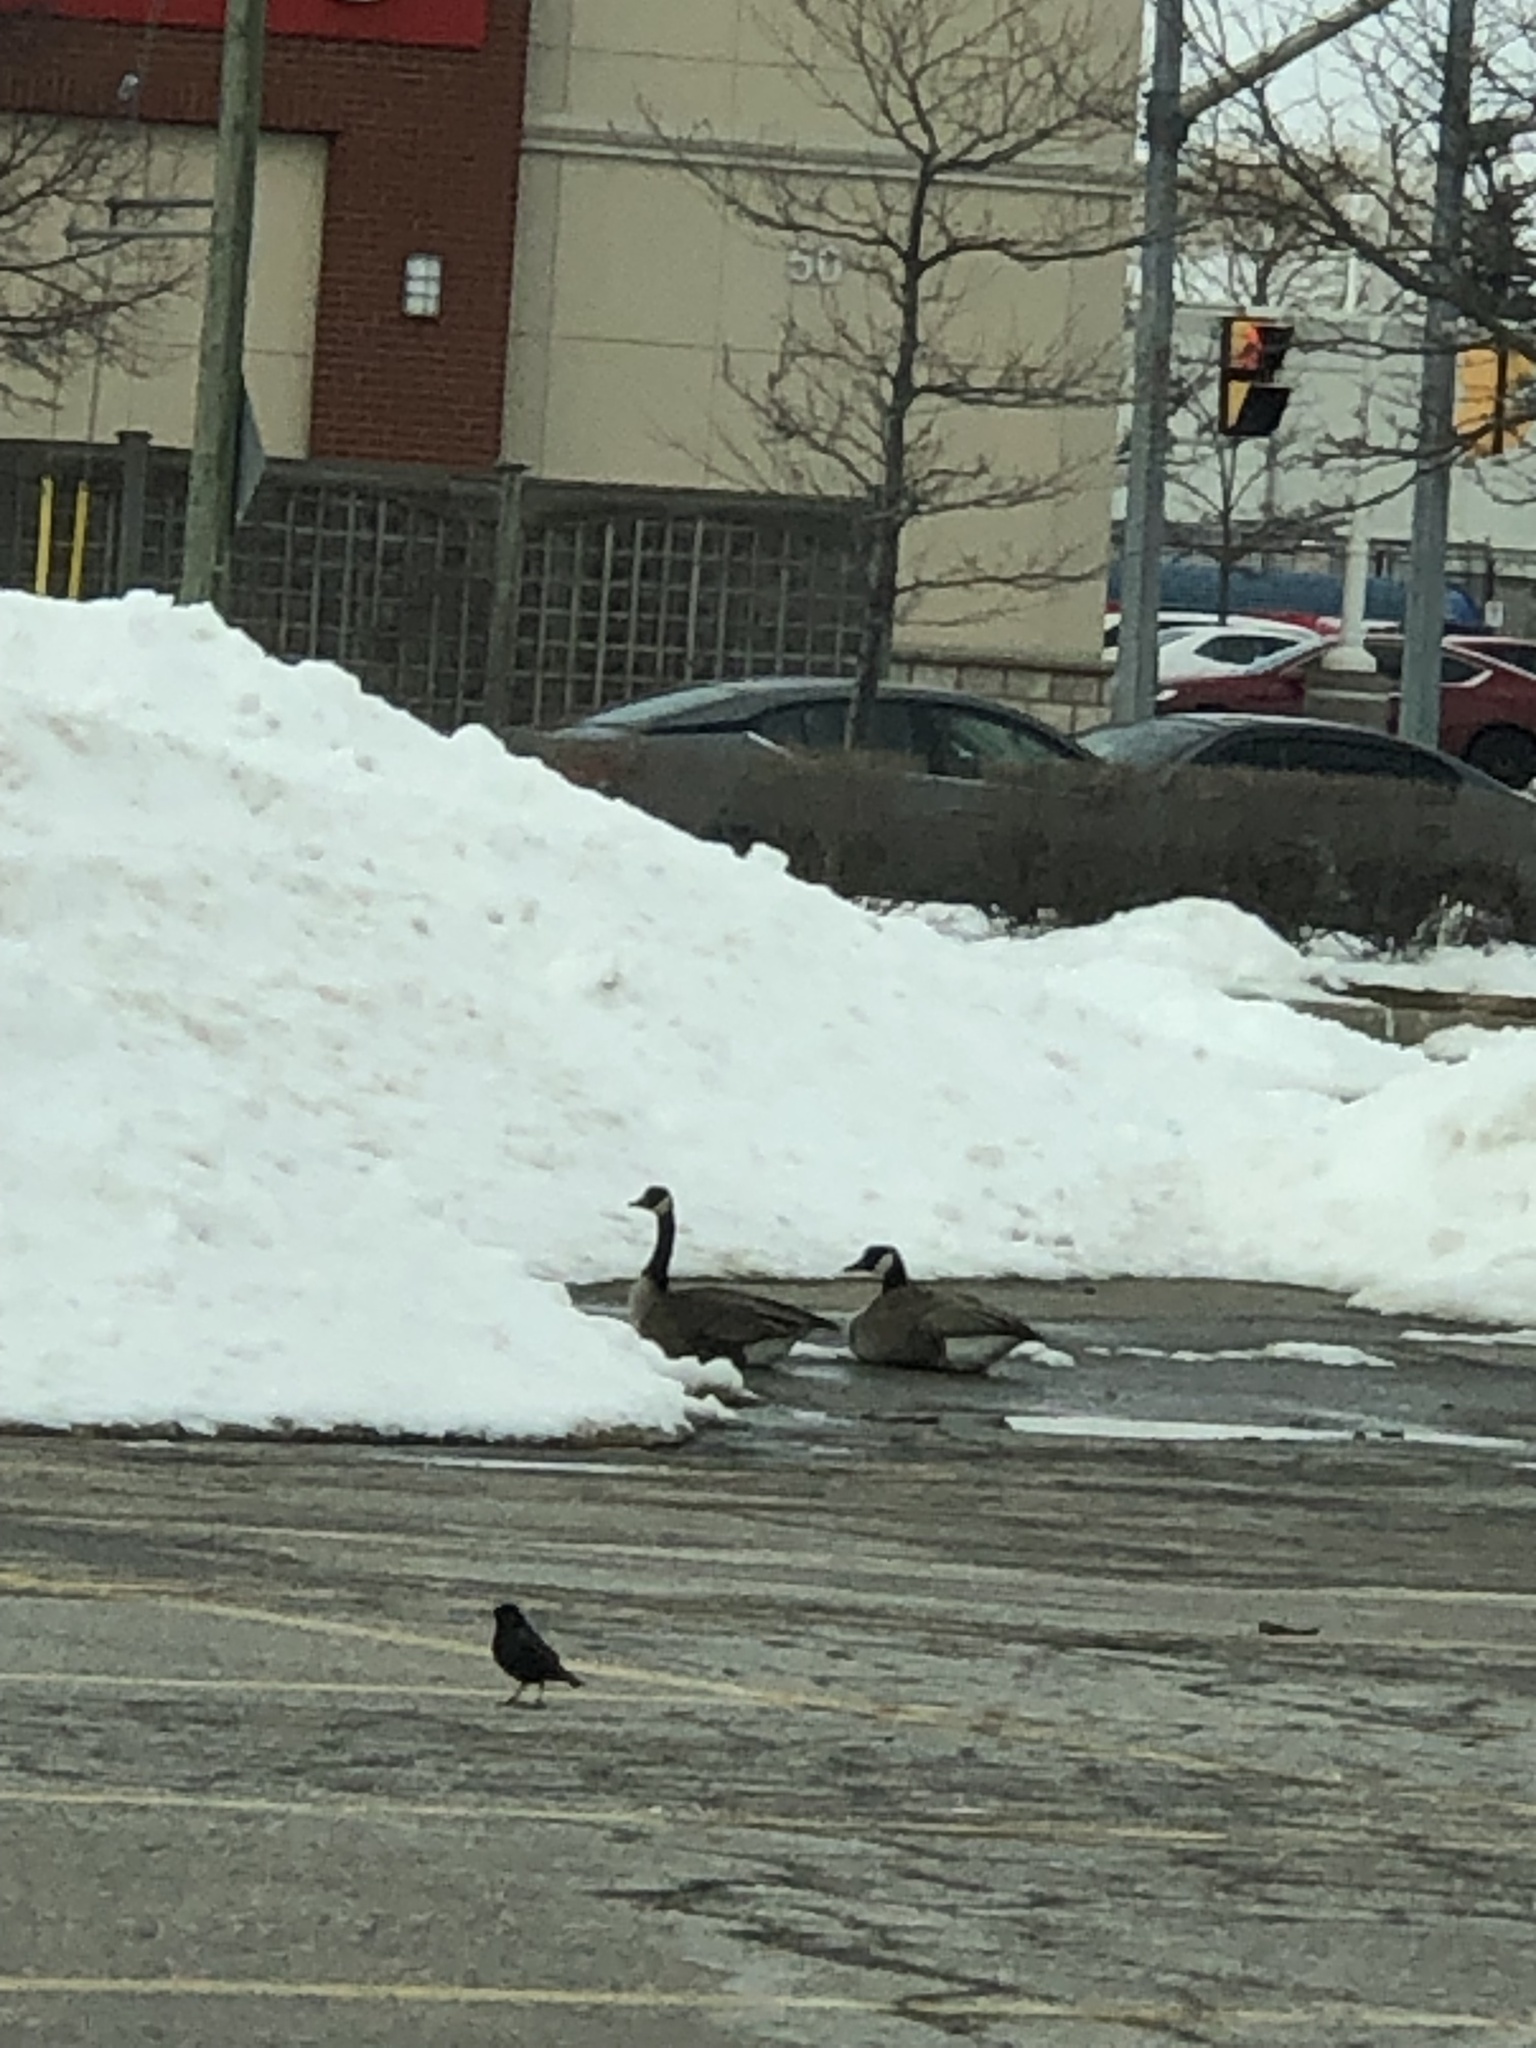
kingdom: Animalia
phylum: Chordata
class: Aves
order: Anseriformes
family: Anatidae
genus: Branta
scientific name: Branta canadensis
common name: Canada goose
